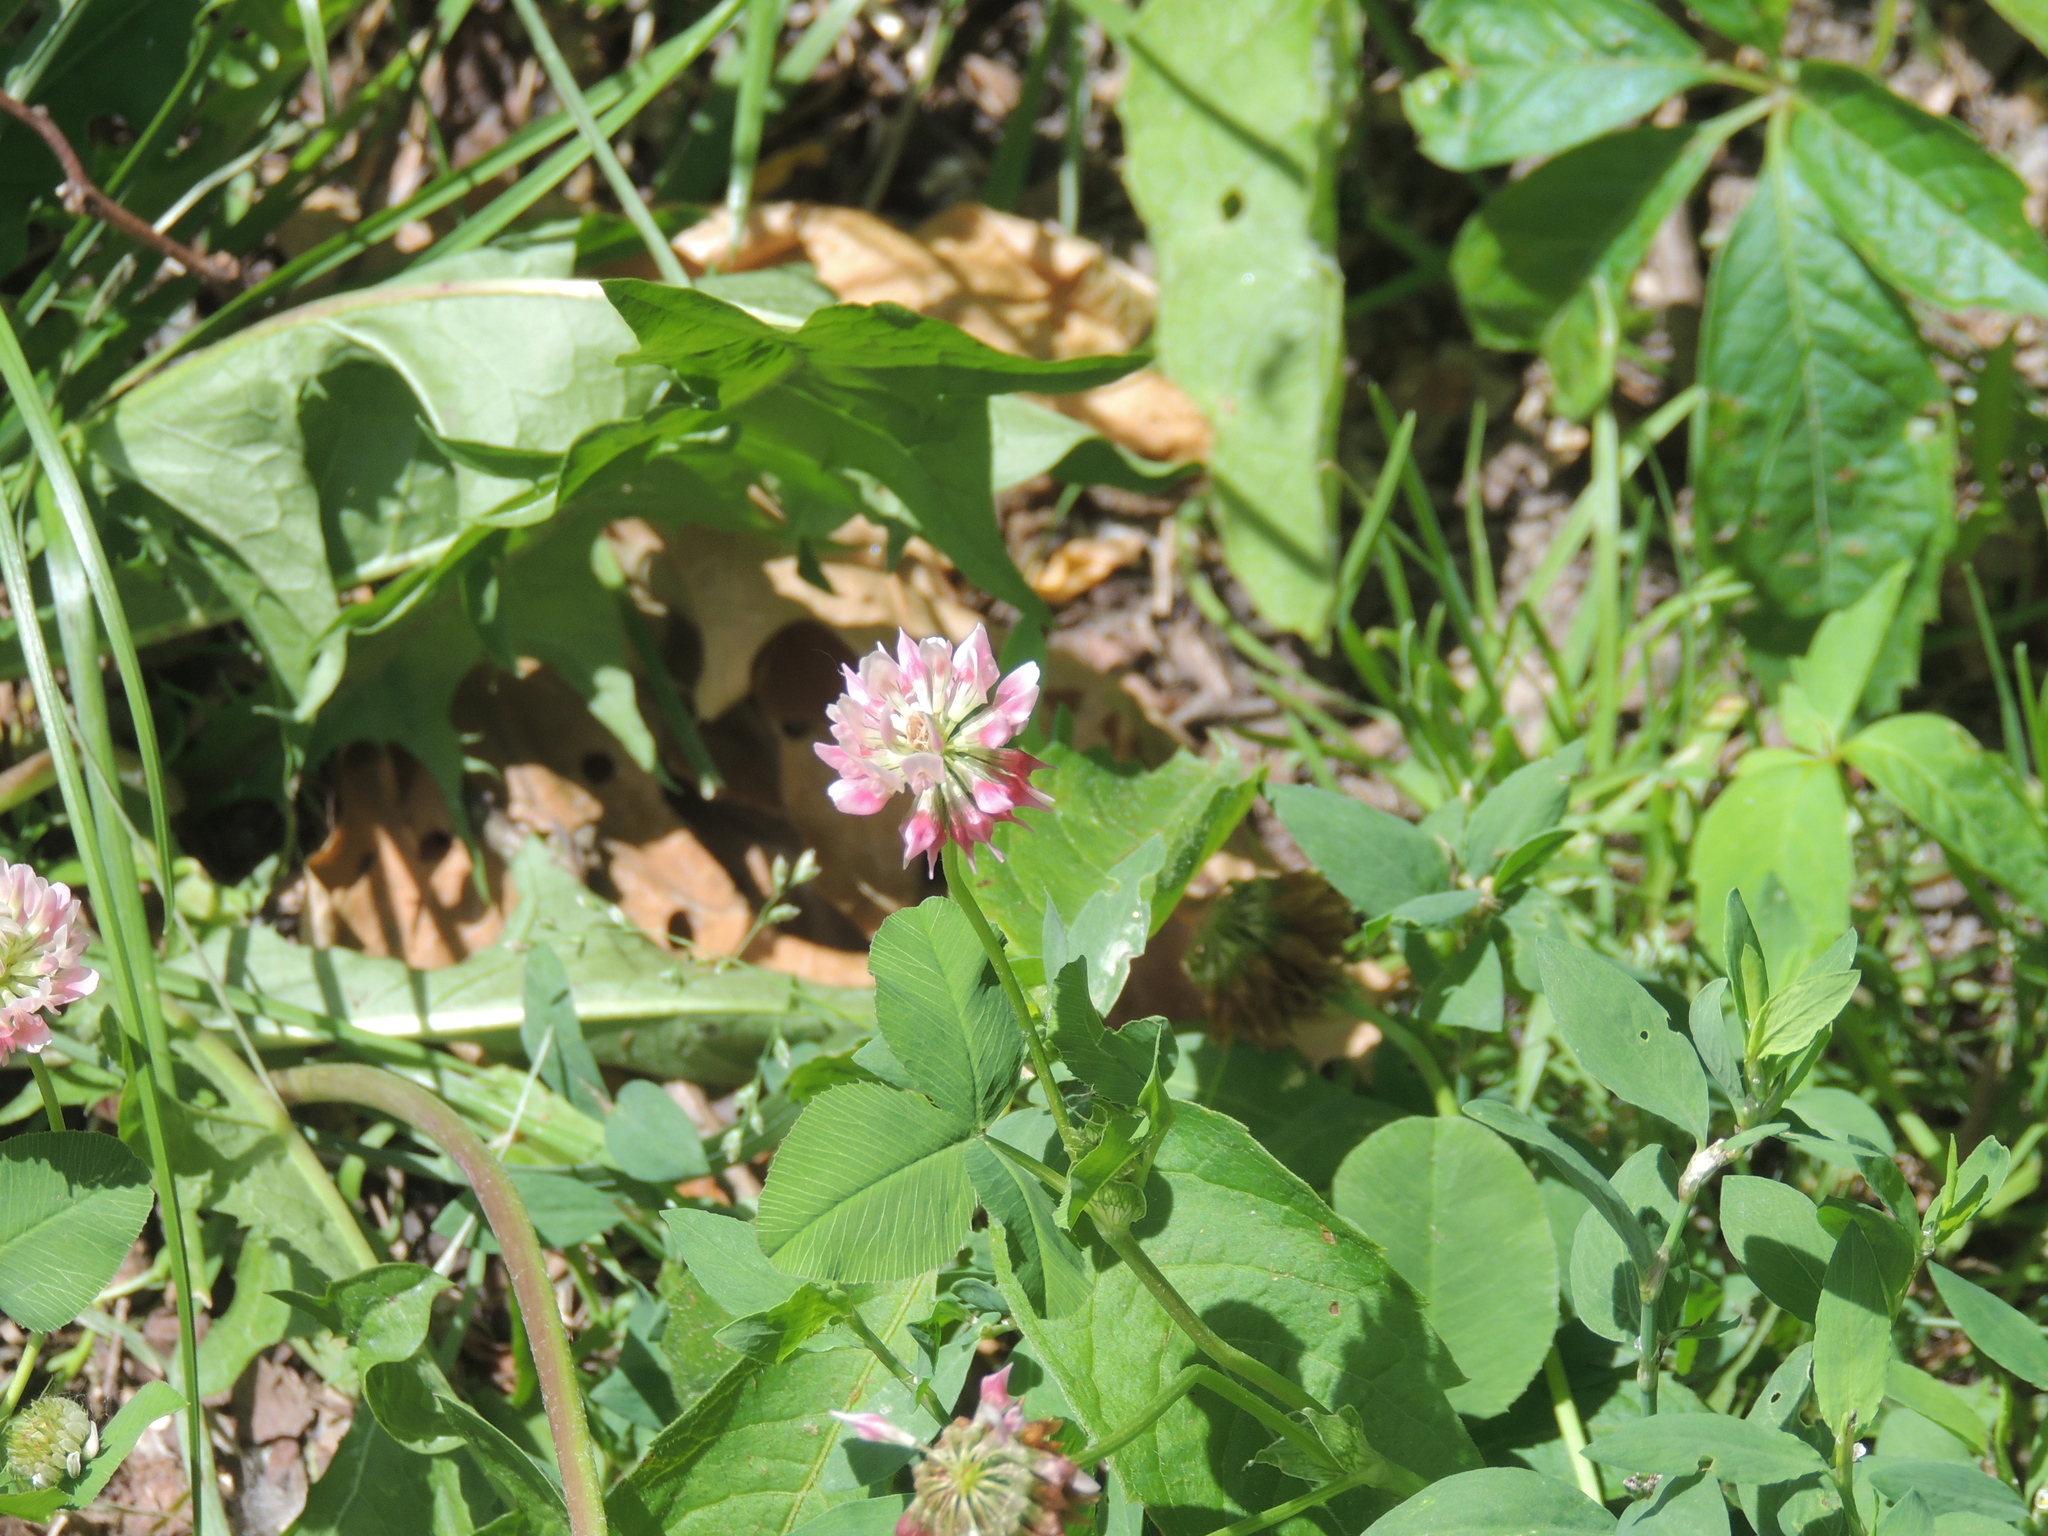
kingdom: Plantae
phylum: Tracheophyta
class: Magnoliopsida
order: Fabales
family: Fabaceae
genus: Trifolium
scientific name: Trifolium hybridum
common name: Alsike clover
